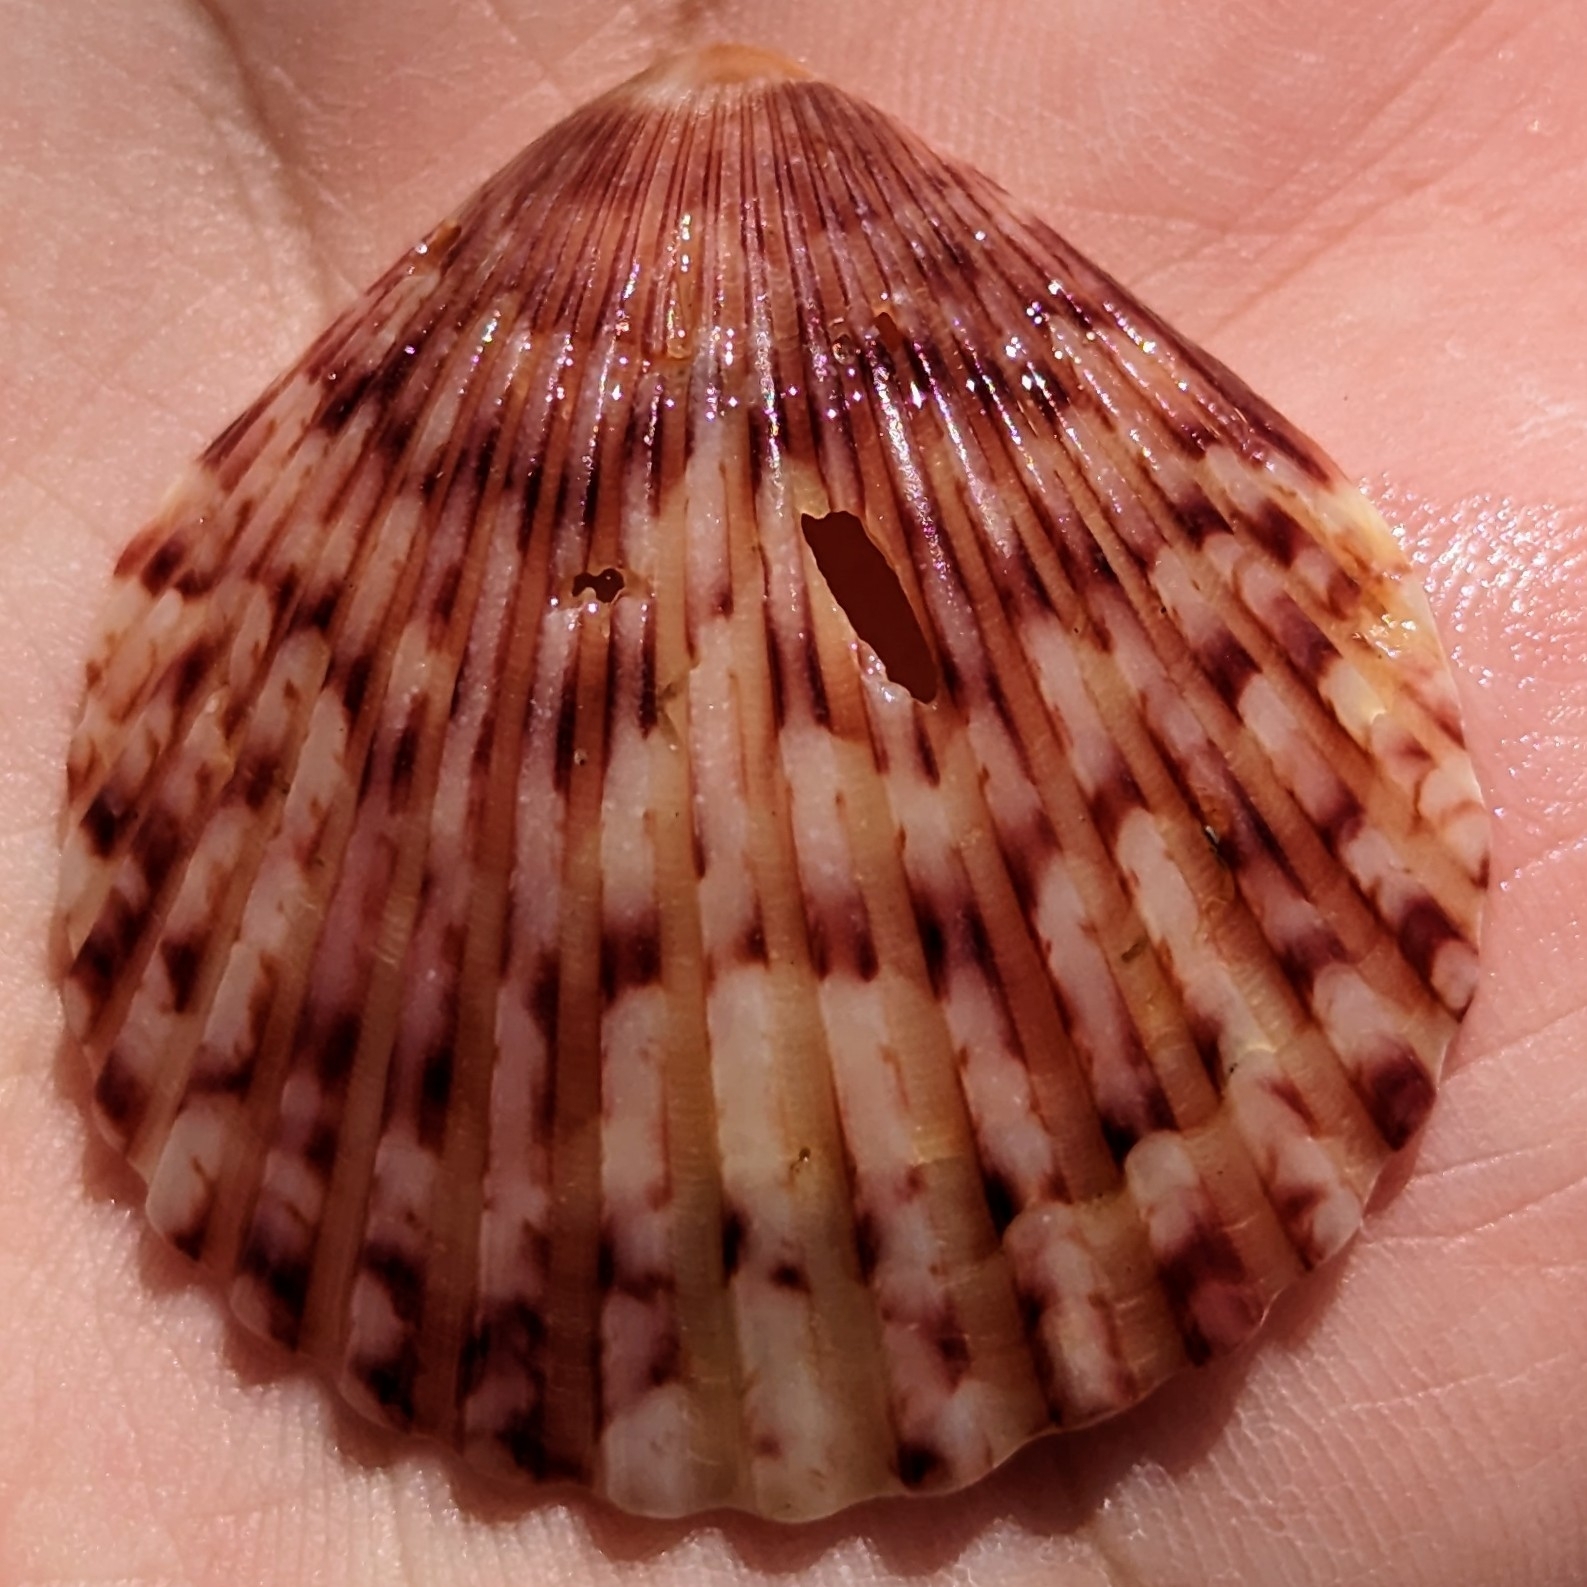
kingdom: Animalia
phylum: Mollusca
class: Bivalvia
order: Pectinida
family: Pectinidae
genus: Argopecten
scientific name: Argopecten gibbus
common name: Atlantic calico scallop
